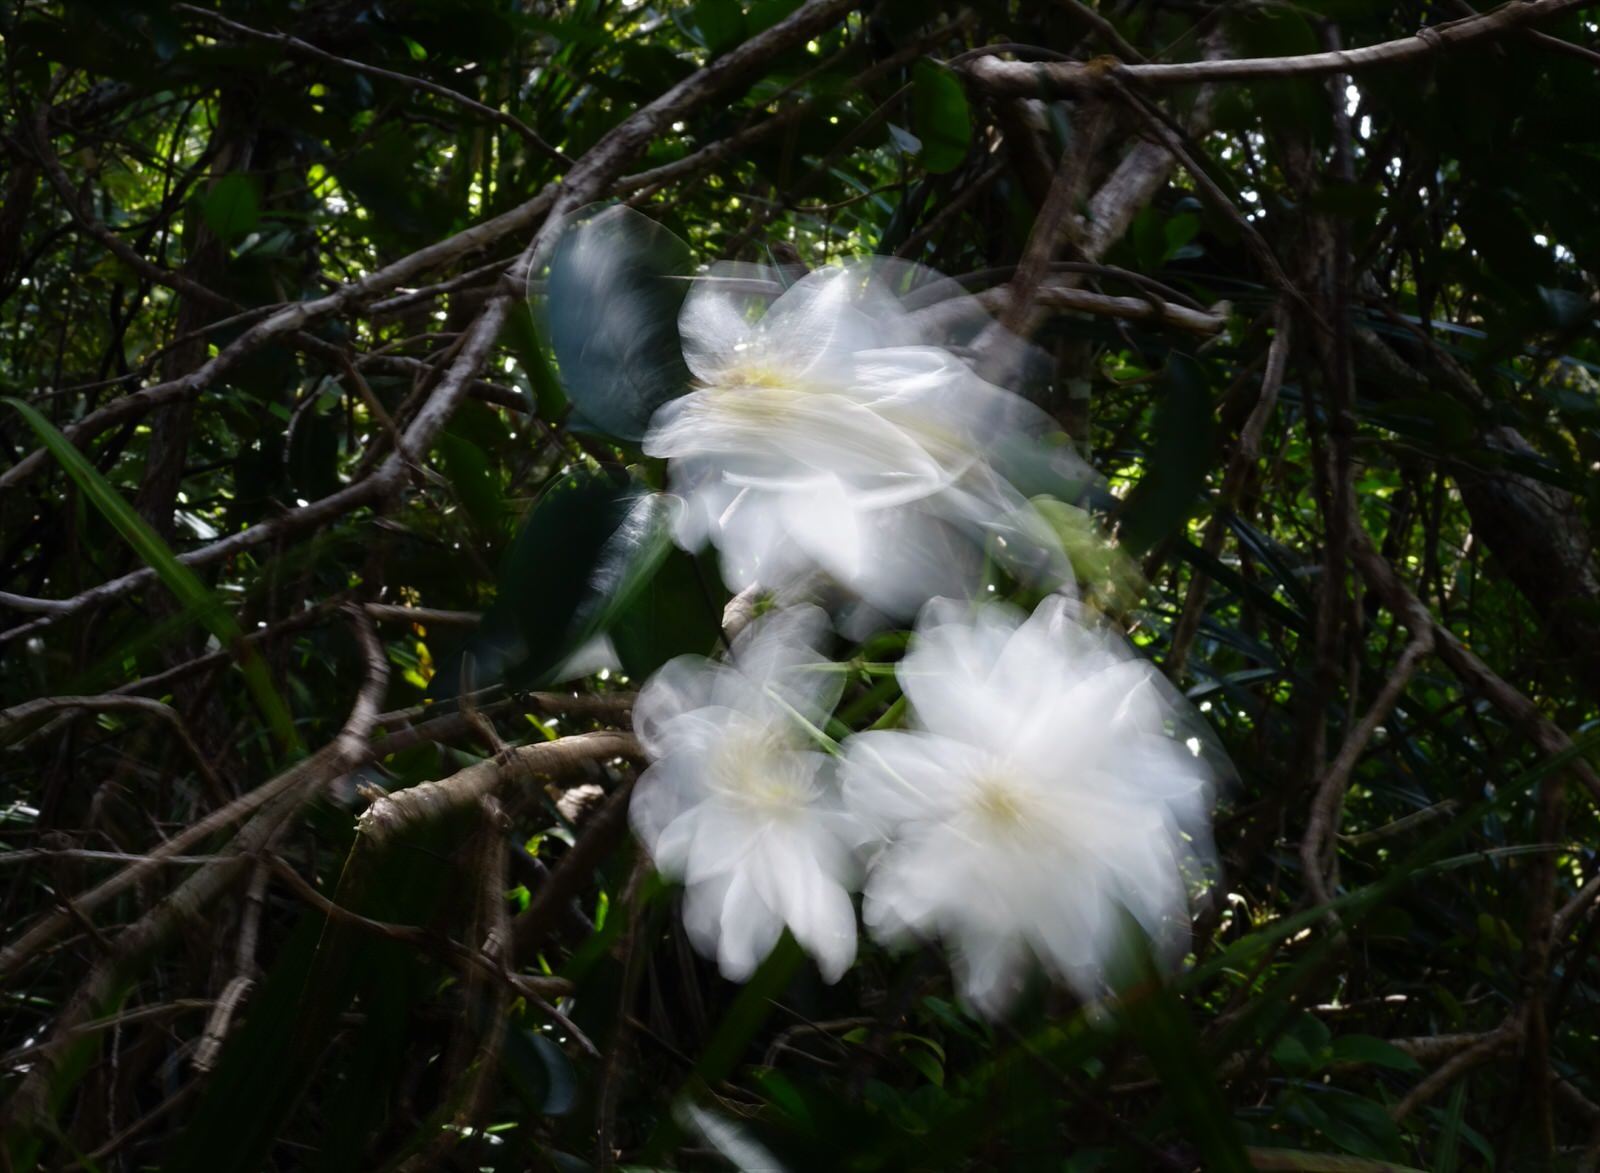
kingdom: Plantae
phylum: Tracheophyta
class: Magnoliopsida
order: Ranunculales
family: Ranunculaceae
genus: Clematis
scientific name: Clematis paniculata
